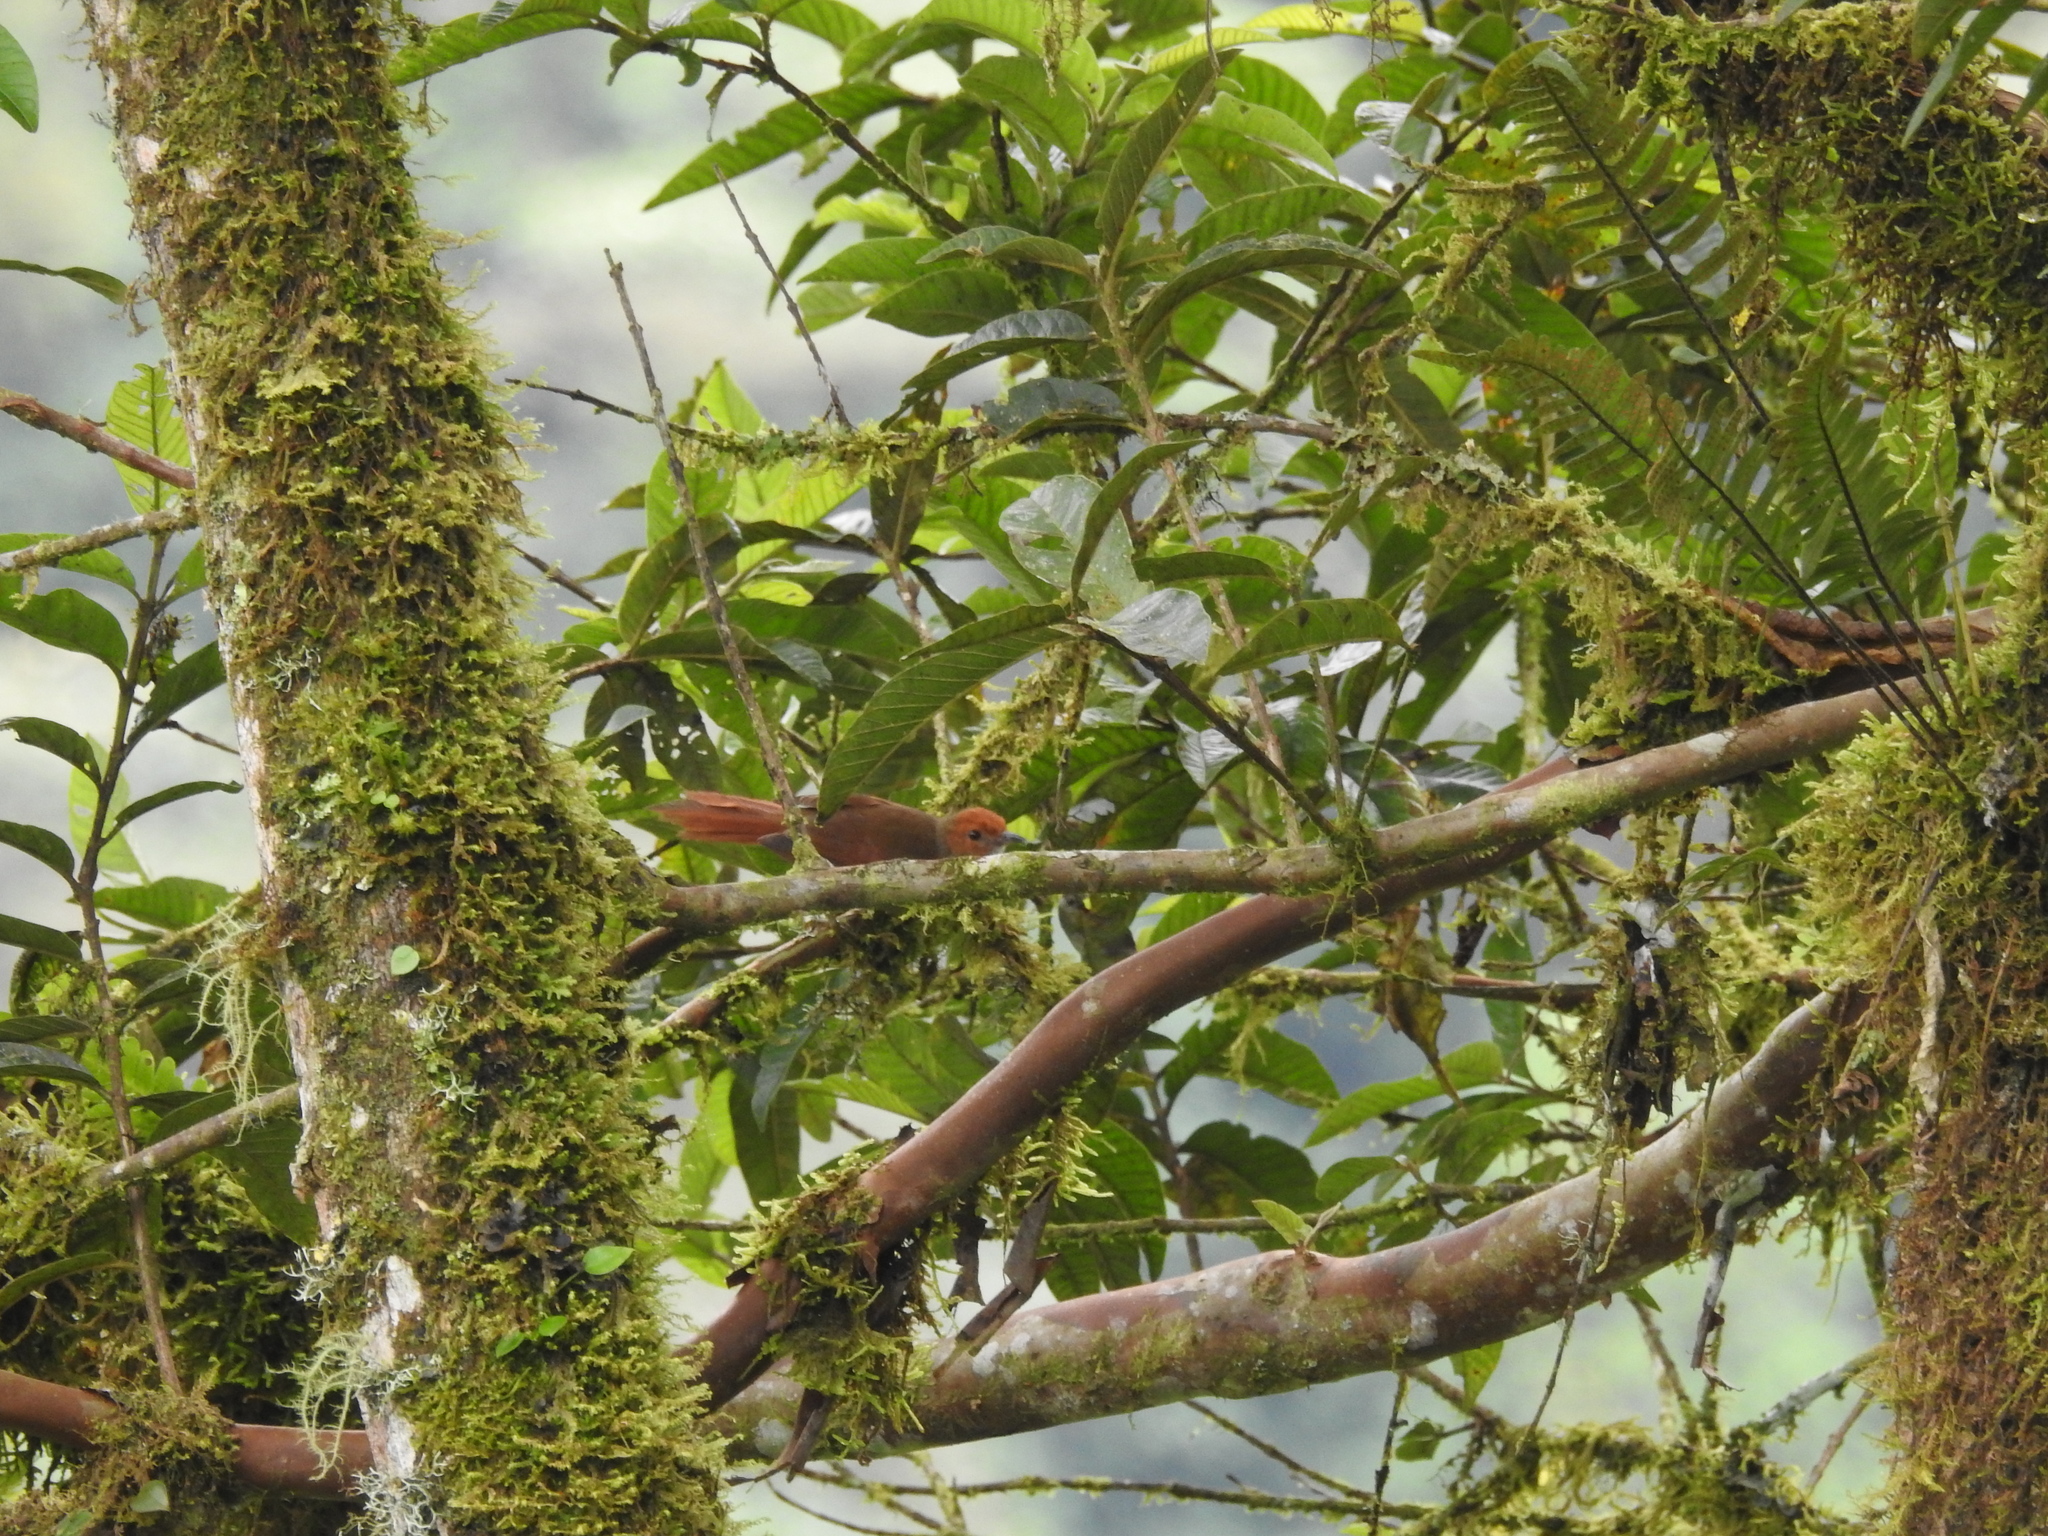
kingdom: Animalia
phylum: Chordata
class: Aves
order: Passeriformes
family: Furnariidae
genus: Cranioleuca
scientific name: Cranioleuca erythrops
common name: Red-faced spinetail
